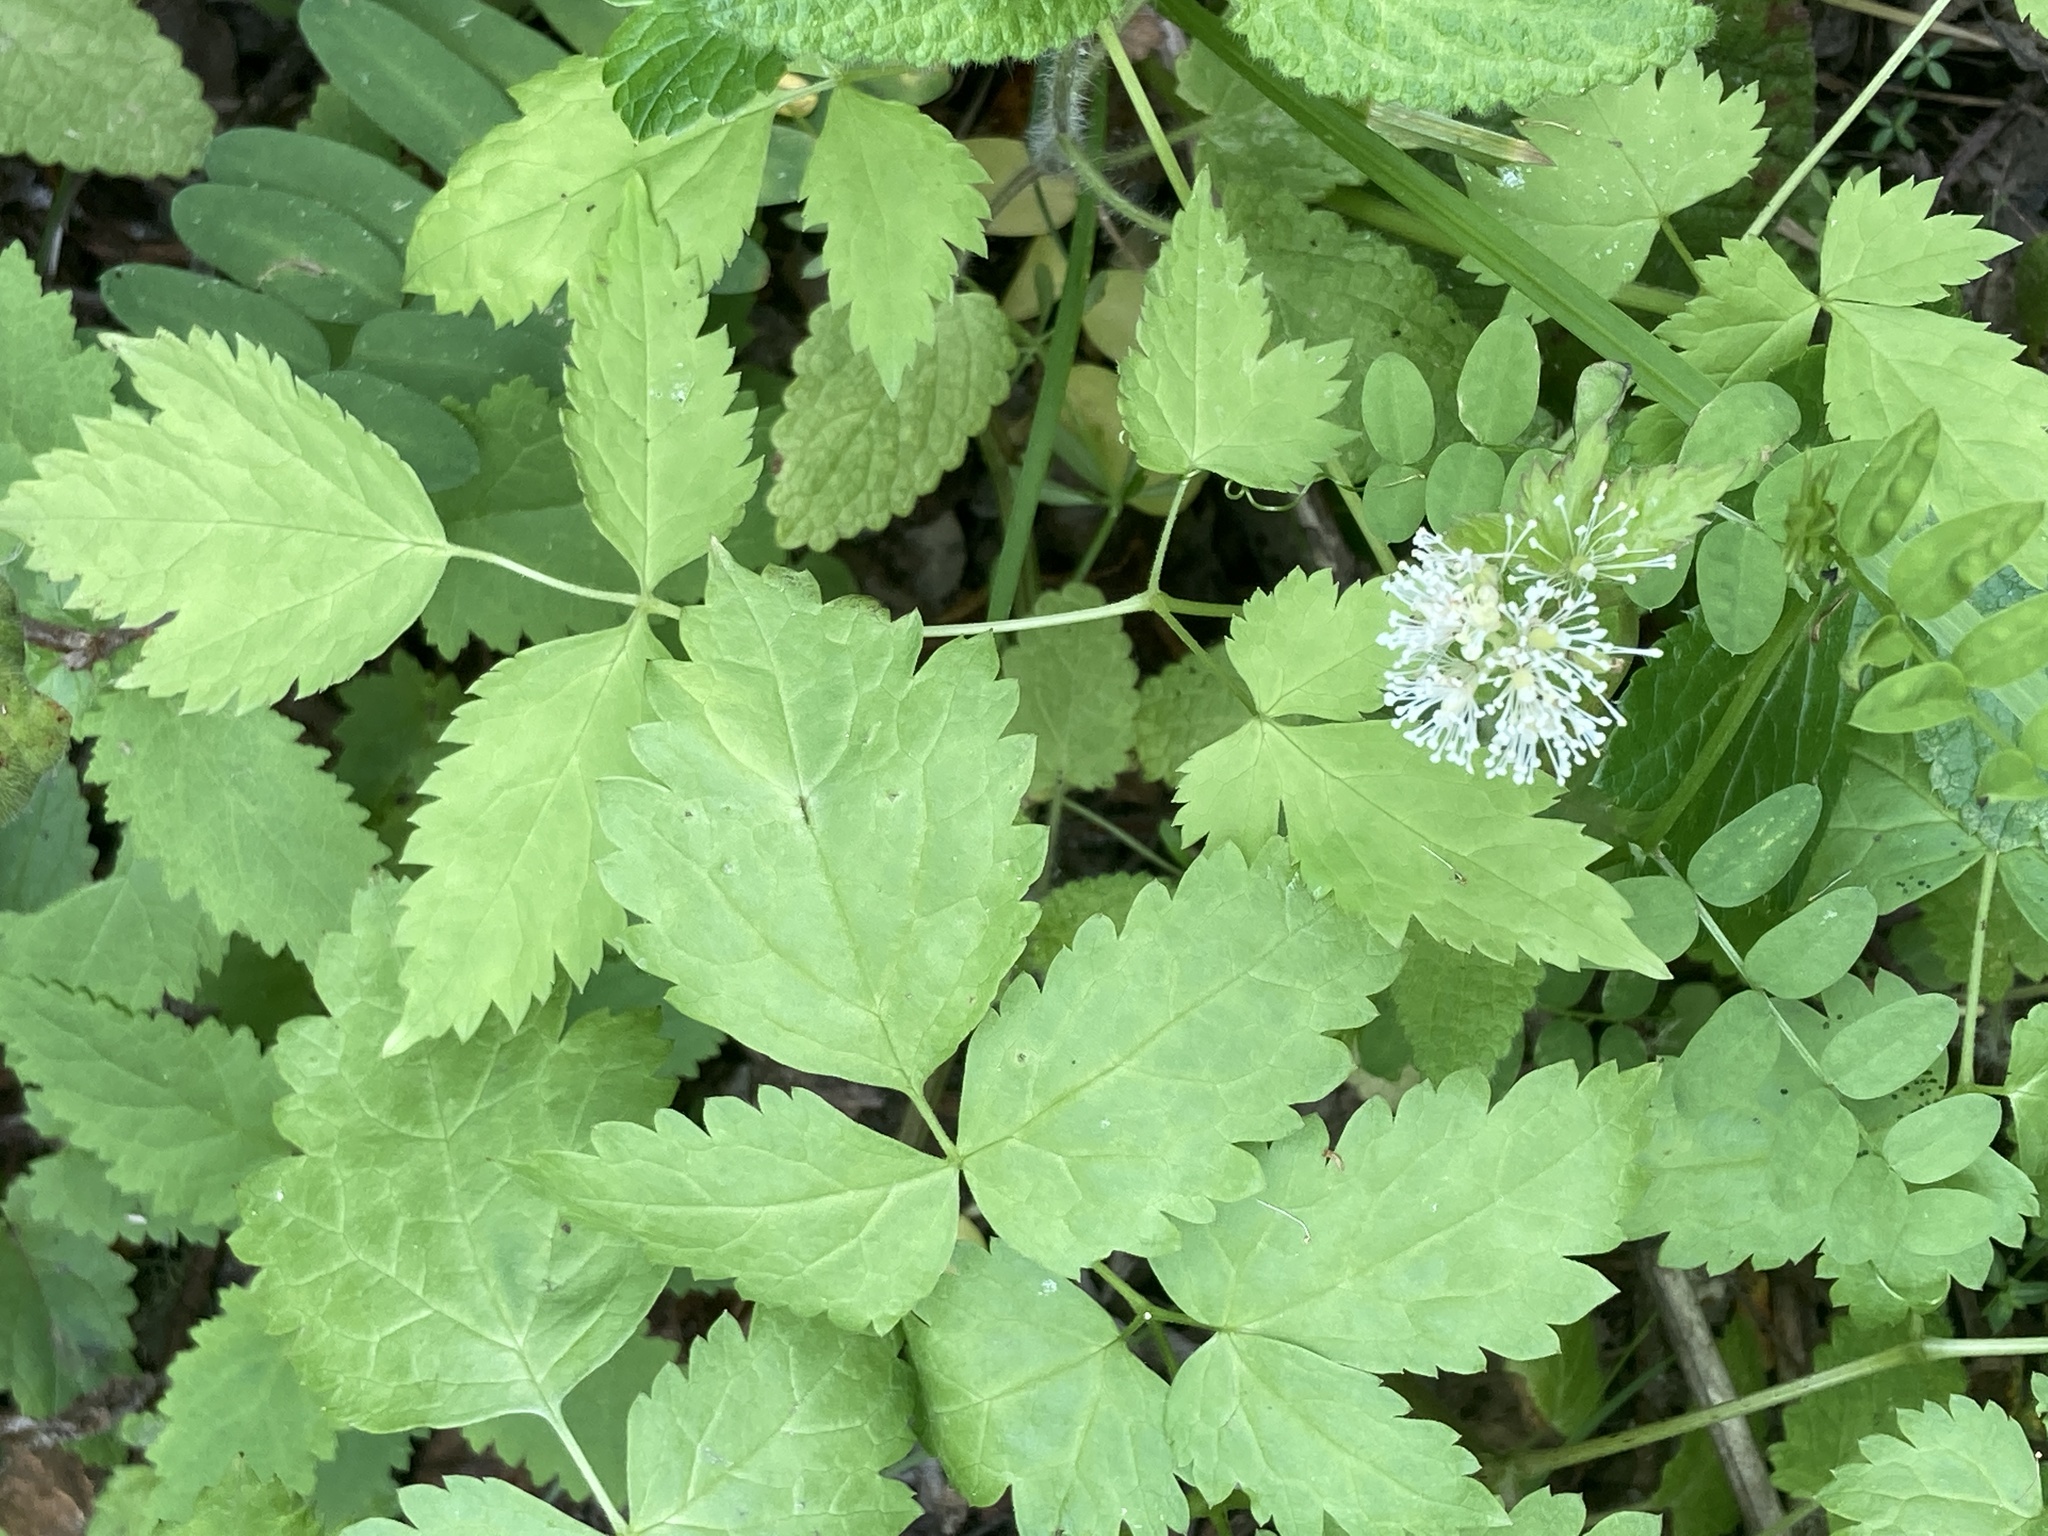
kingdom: Plantae
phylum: Tracheophyta
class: Magnoliopsida
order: Ranunculales
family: Ranunculaceae
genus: Actaea
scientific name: Actaea rubra
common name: Red baneberry
